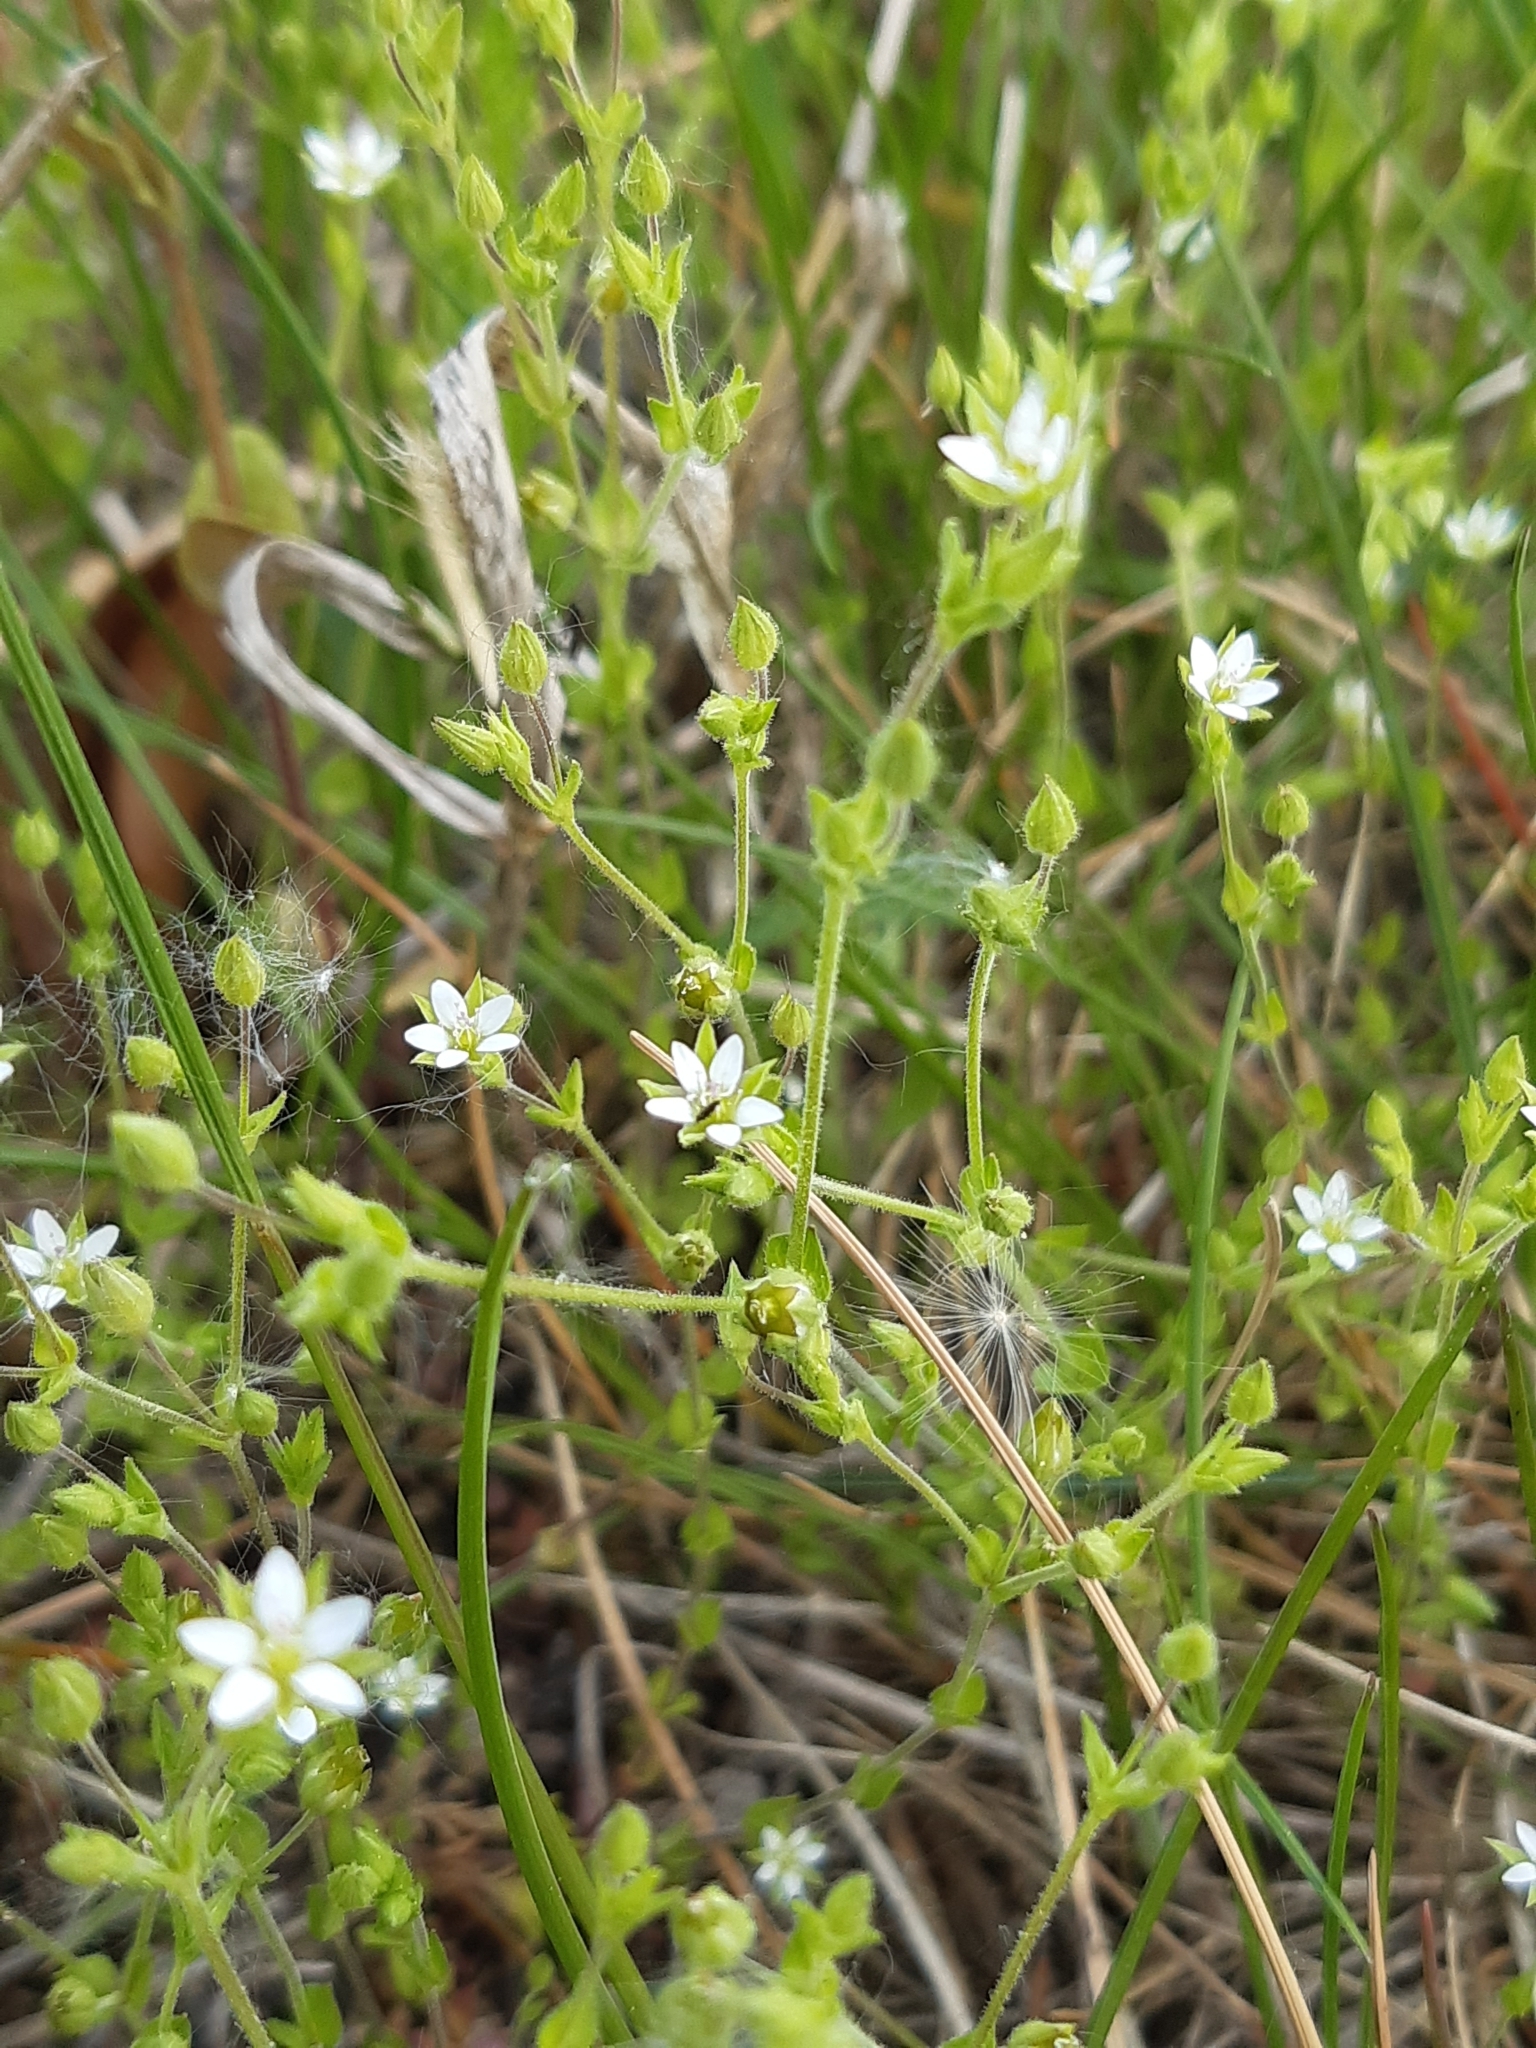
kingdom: Plantae
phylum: Tracheophyta
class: Magnoliopsida
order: Caryophyllales
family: Caryophyllaceae
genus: Arenaria
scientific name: Arenaria serpyllifolia
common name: Thyme-leaved sandwort
